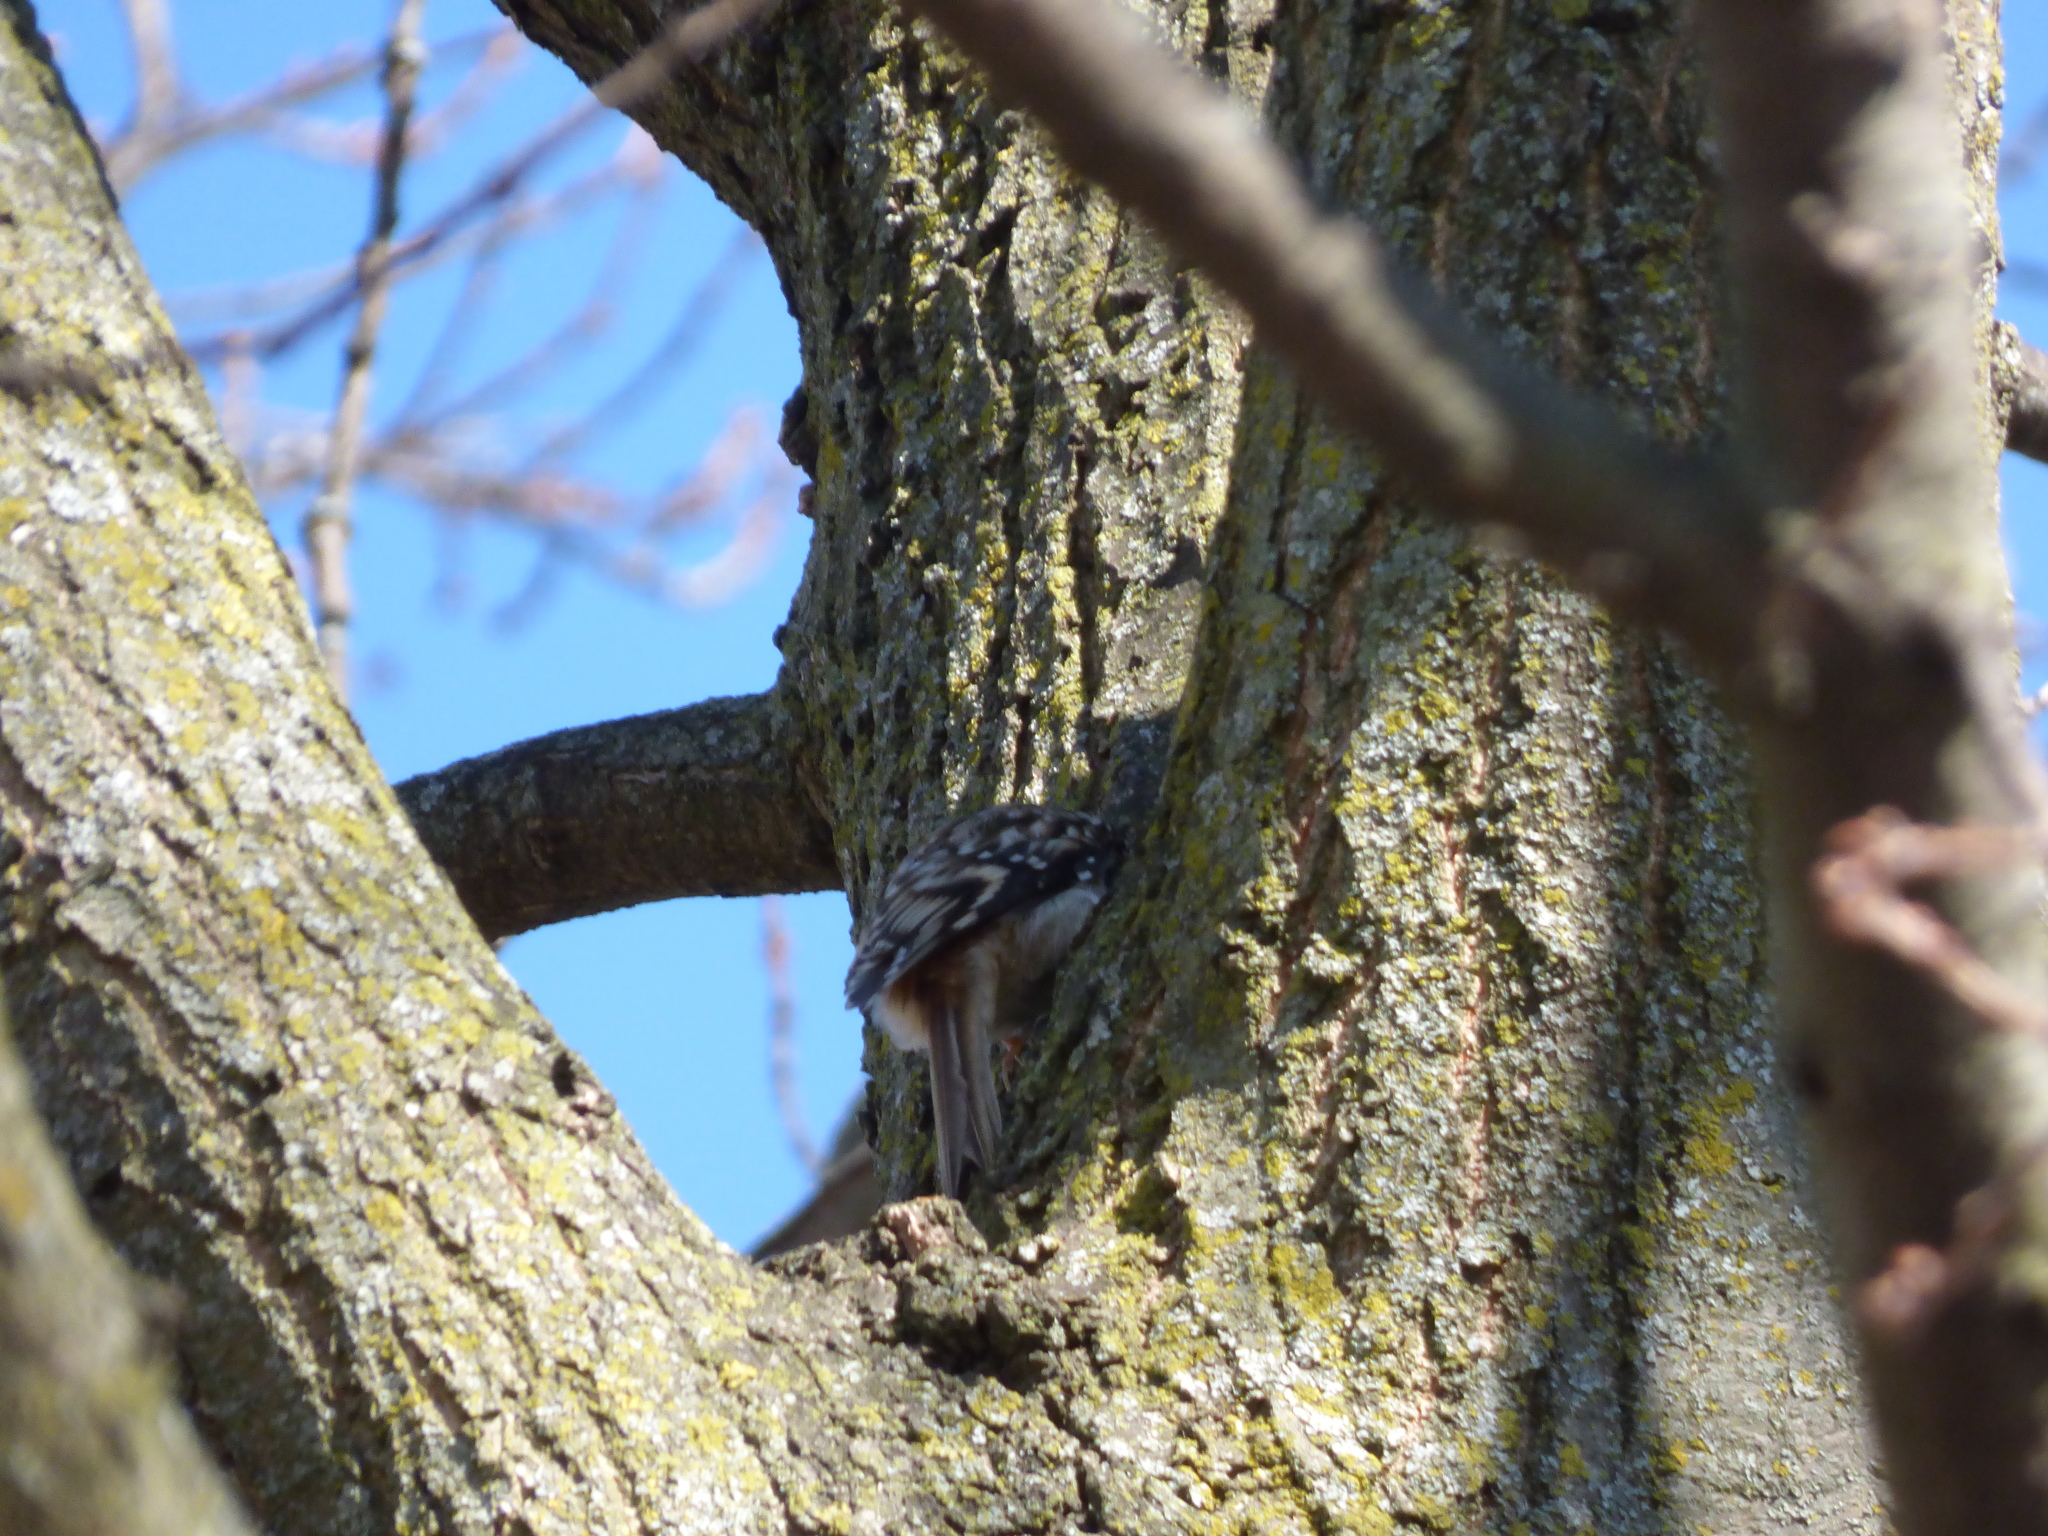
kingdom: Animalia
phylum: Chordata
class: Aves
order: Passeriformes
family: Certhiidae
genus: Certhia
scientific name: Certhia americana
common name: Brown creeper
